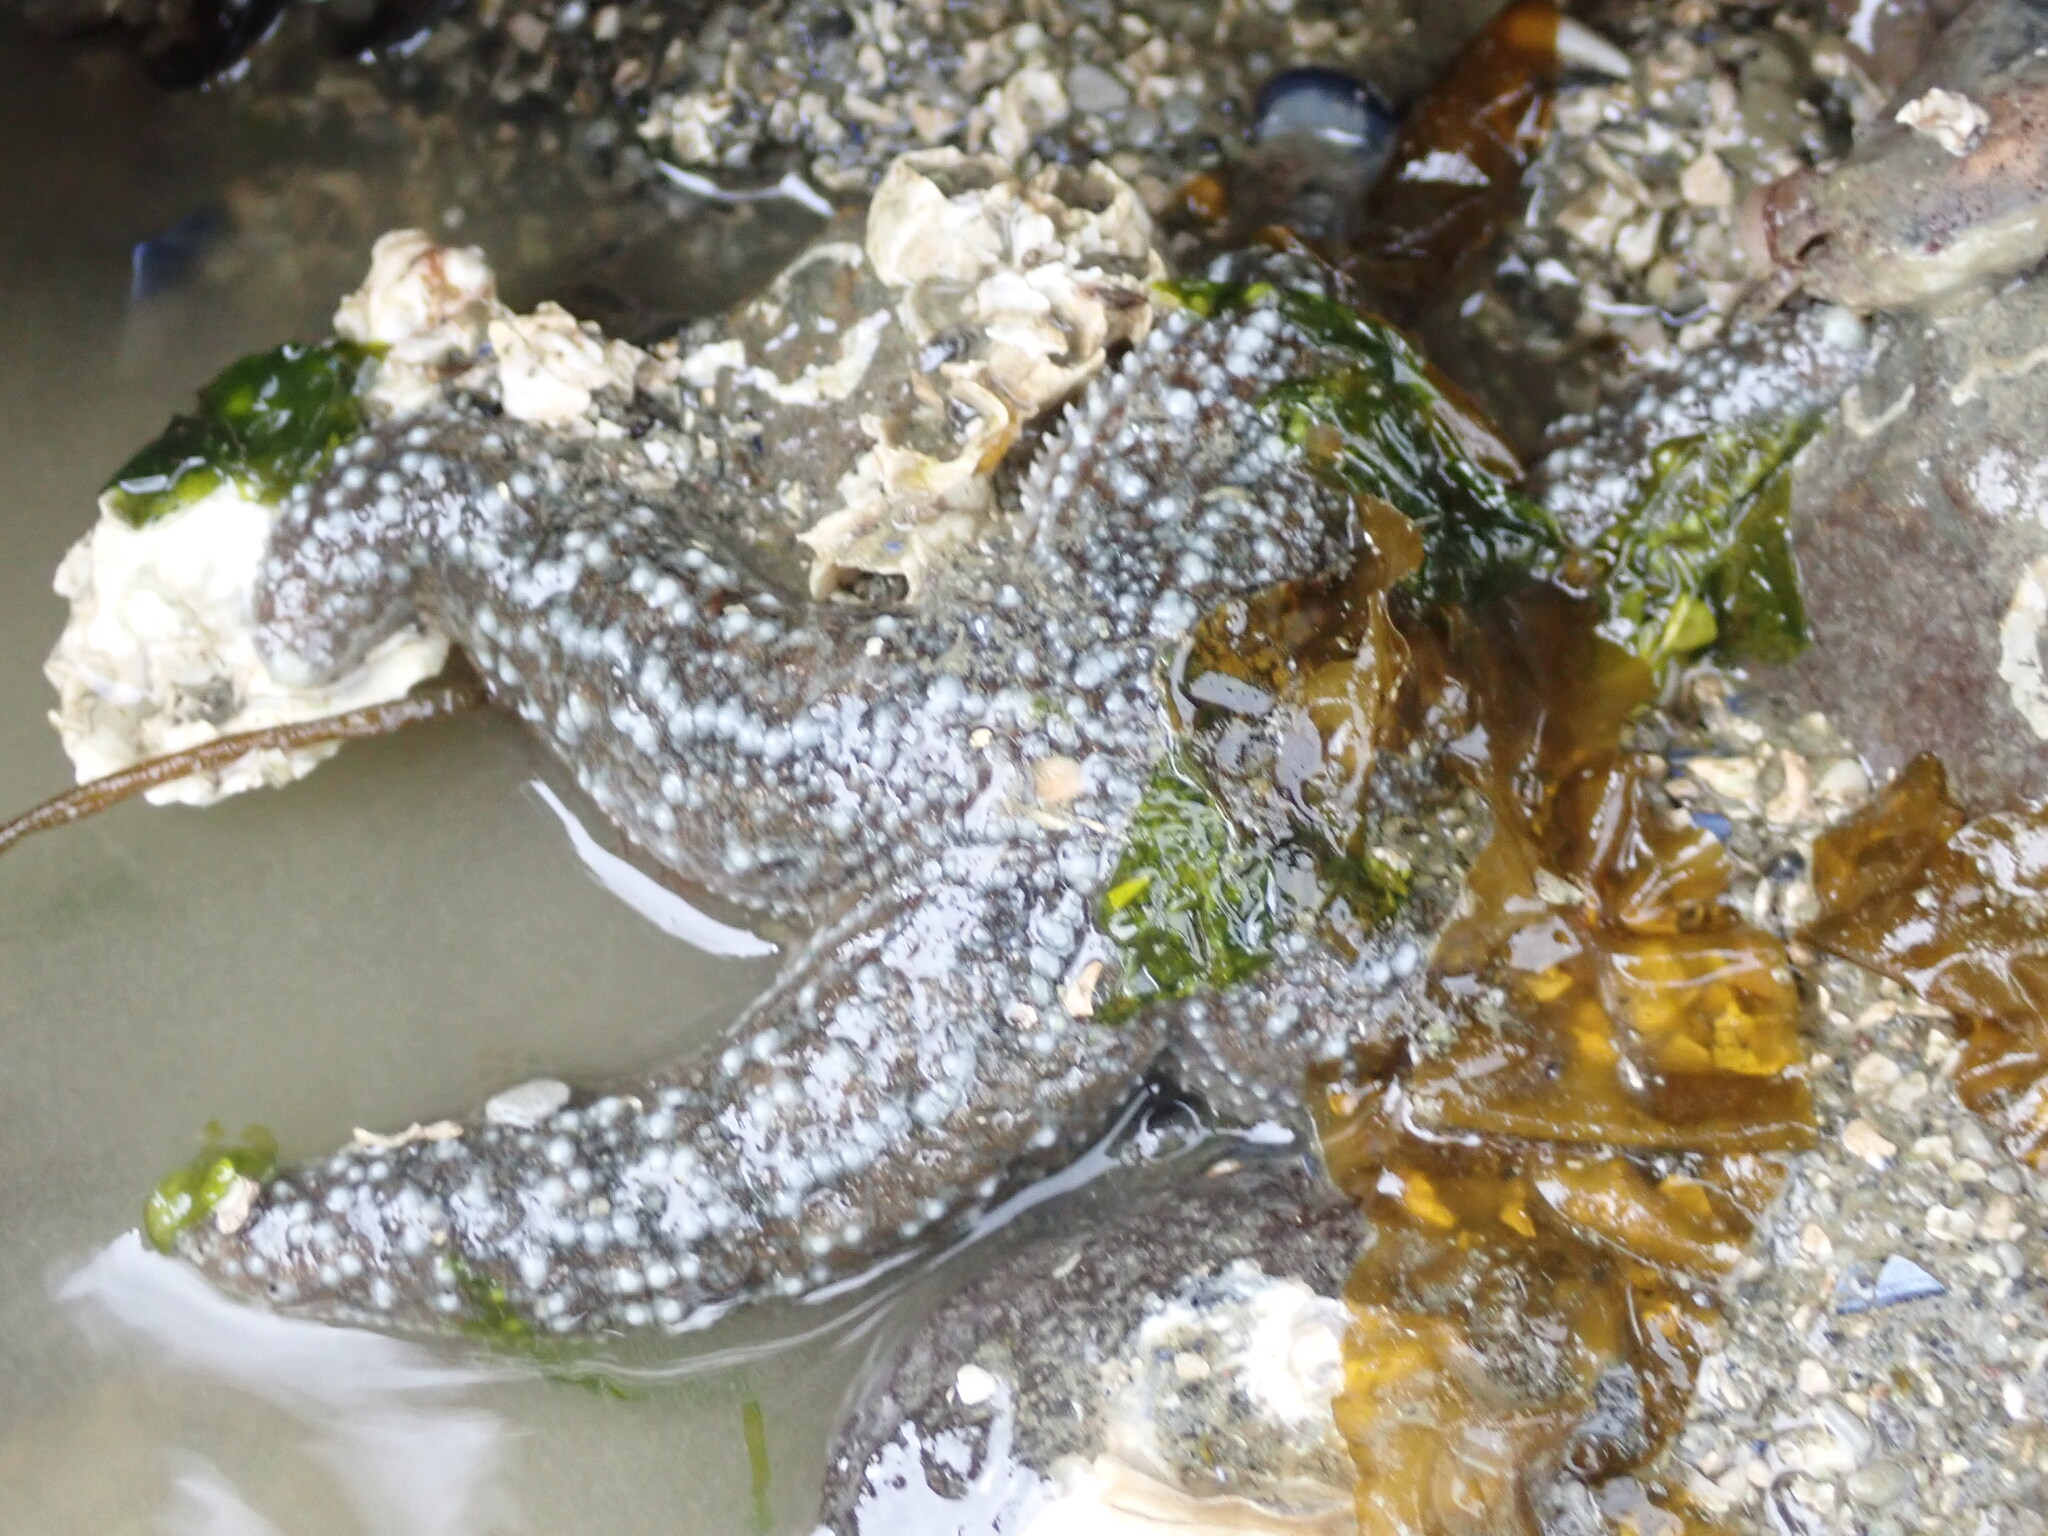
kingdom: Animalia
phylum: Echinodermata
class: Asteroidea
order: Forcipulatida
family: Asteriidae
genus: Evasterias
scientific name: Evasterias troschelii
